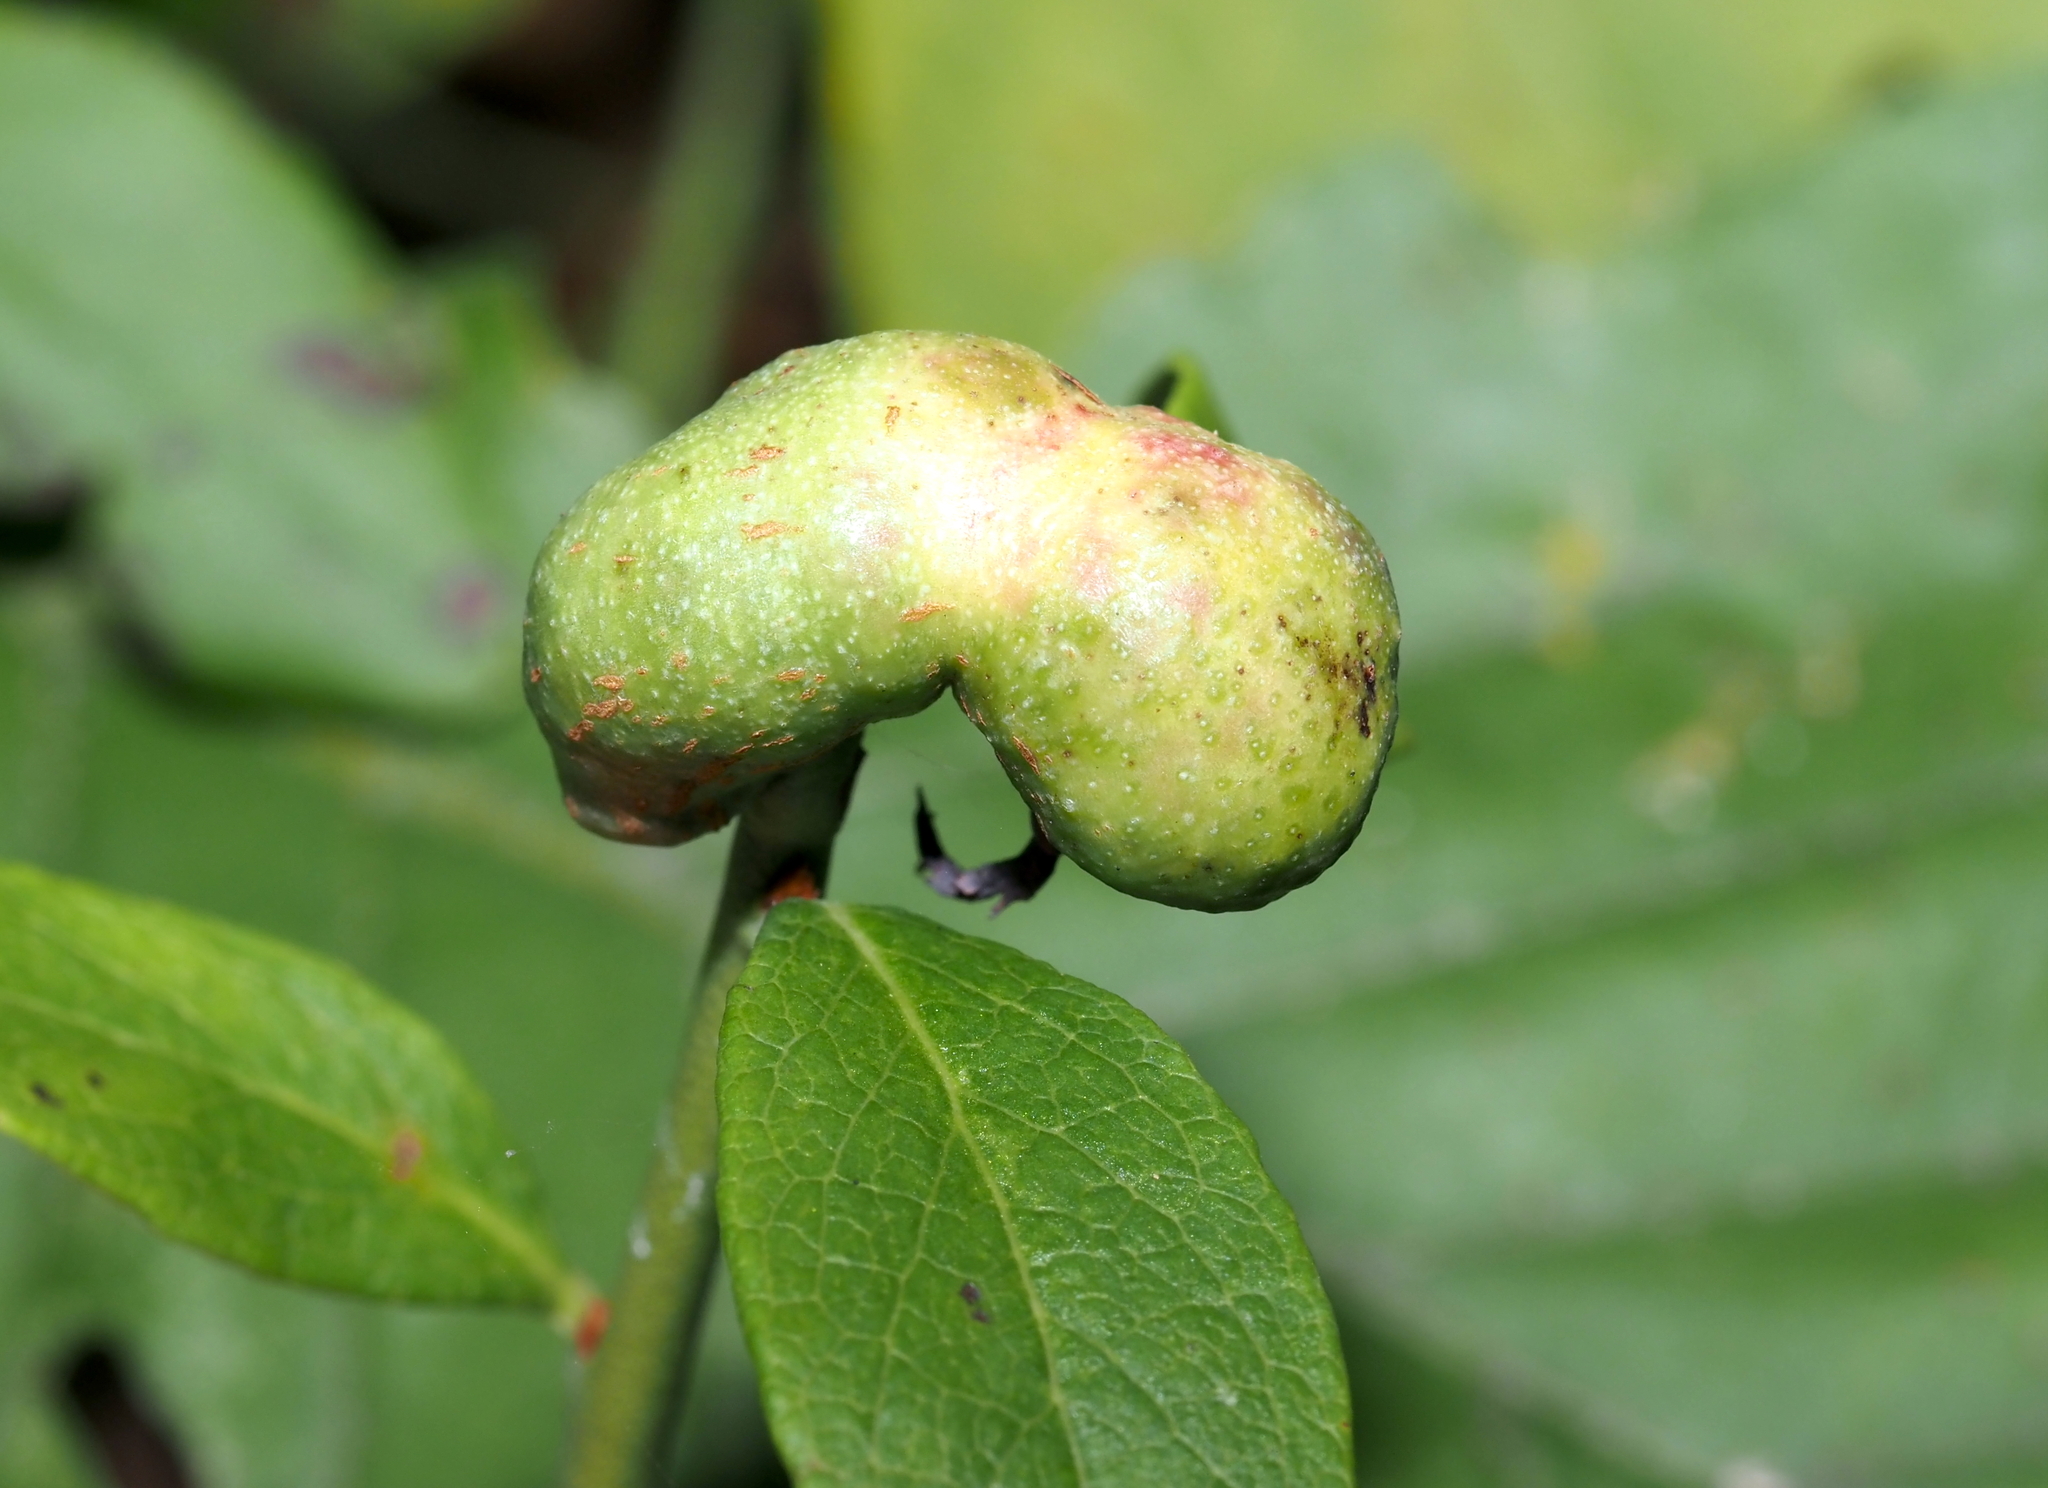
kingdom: Animalia
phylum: Arthropoda
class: Insecta
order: Hymenoptera
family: Pteromalidae
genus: Hemadas
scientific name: Hemadas nubilipennis
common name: Blueberry stem gall wasp
